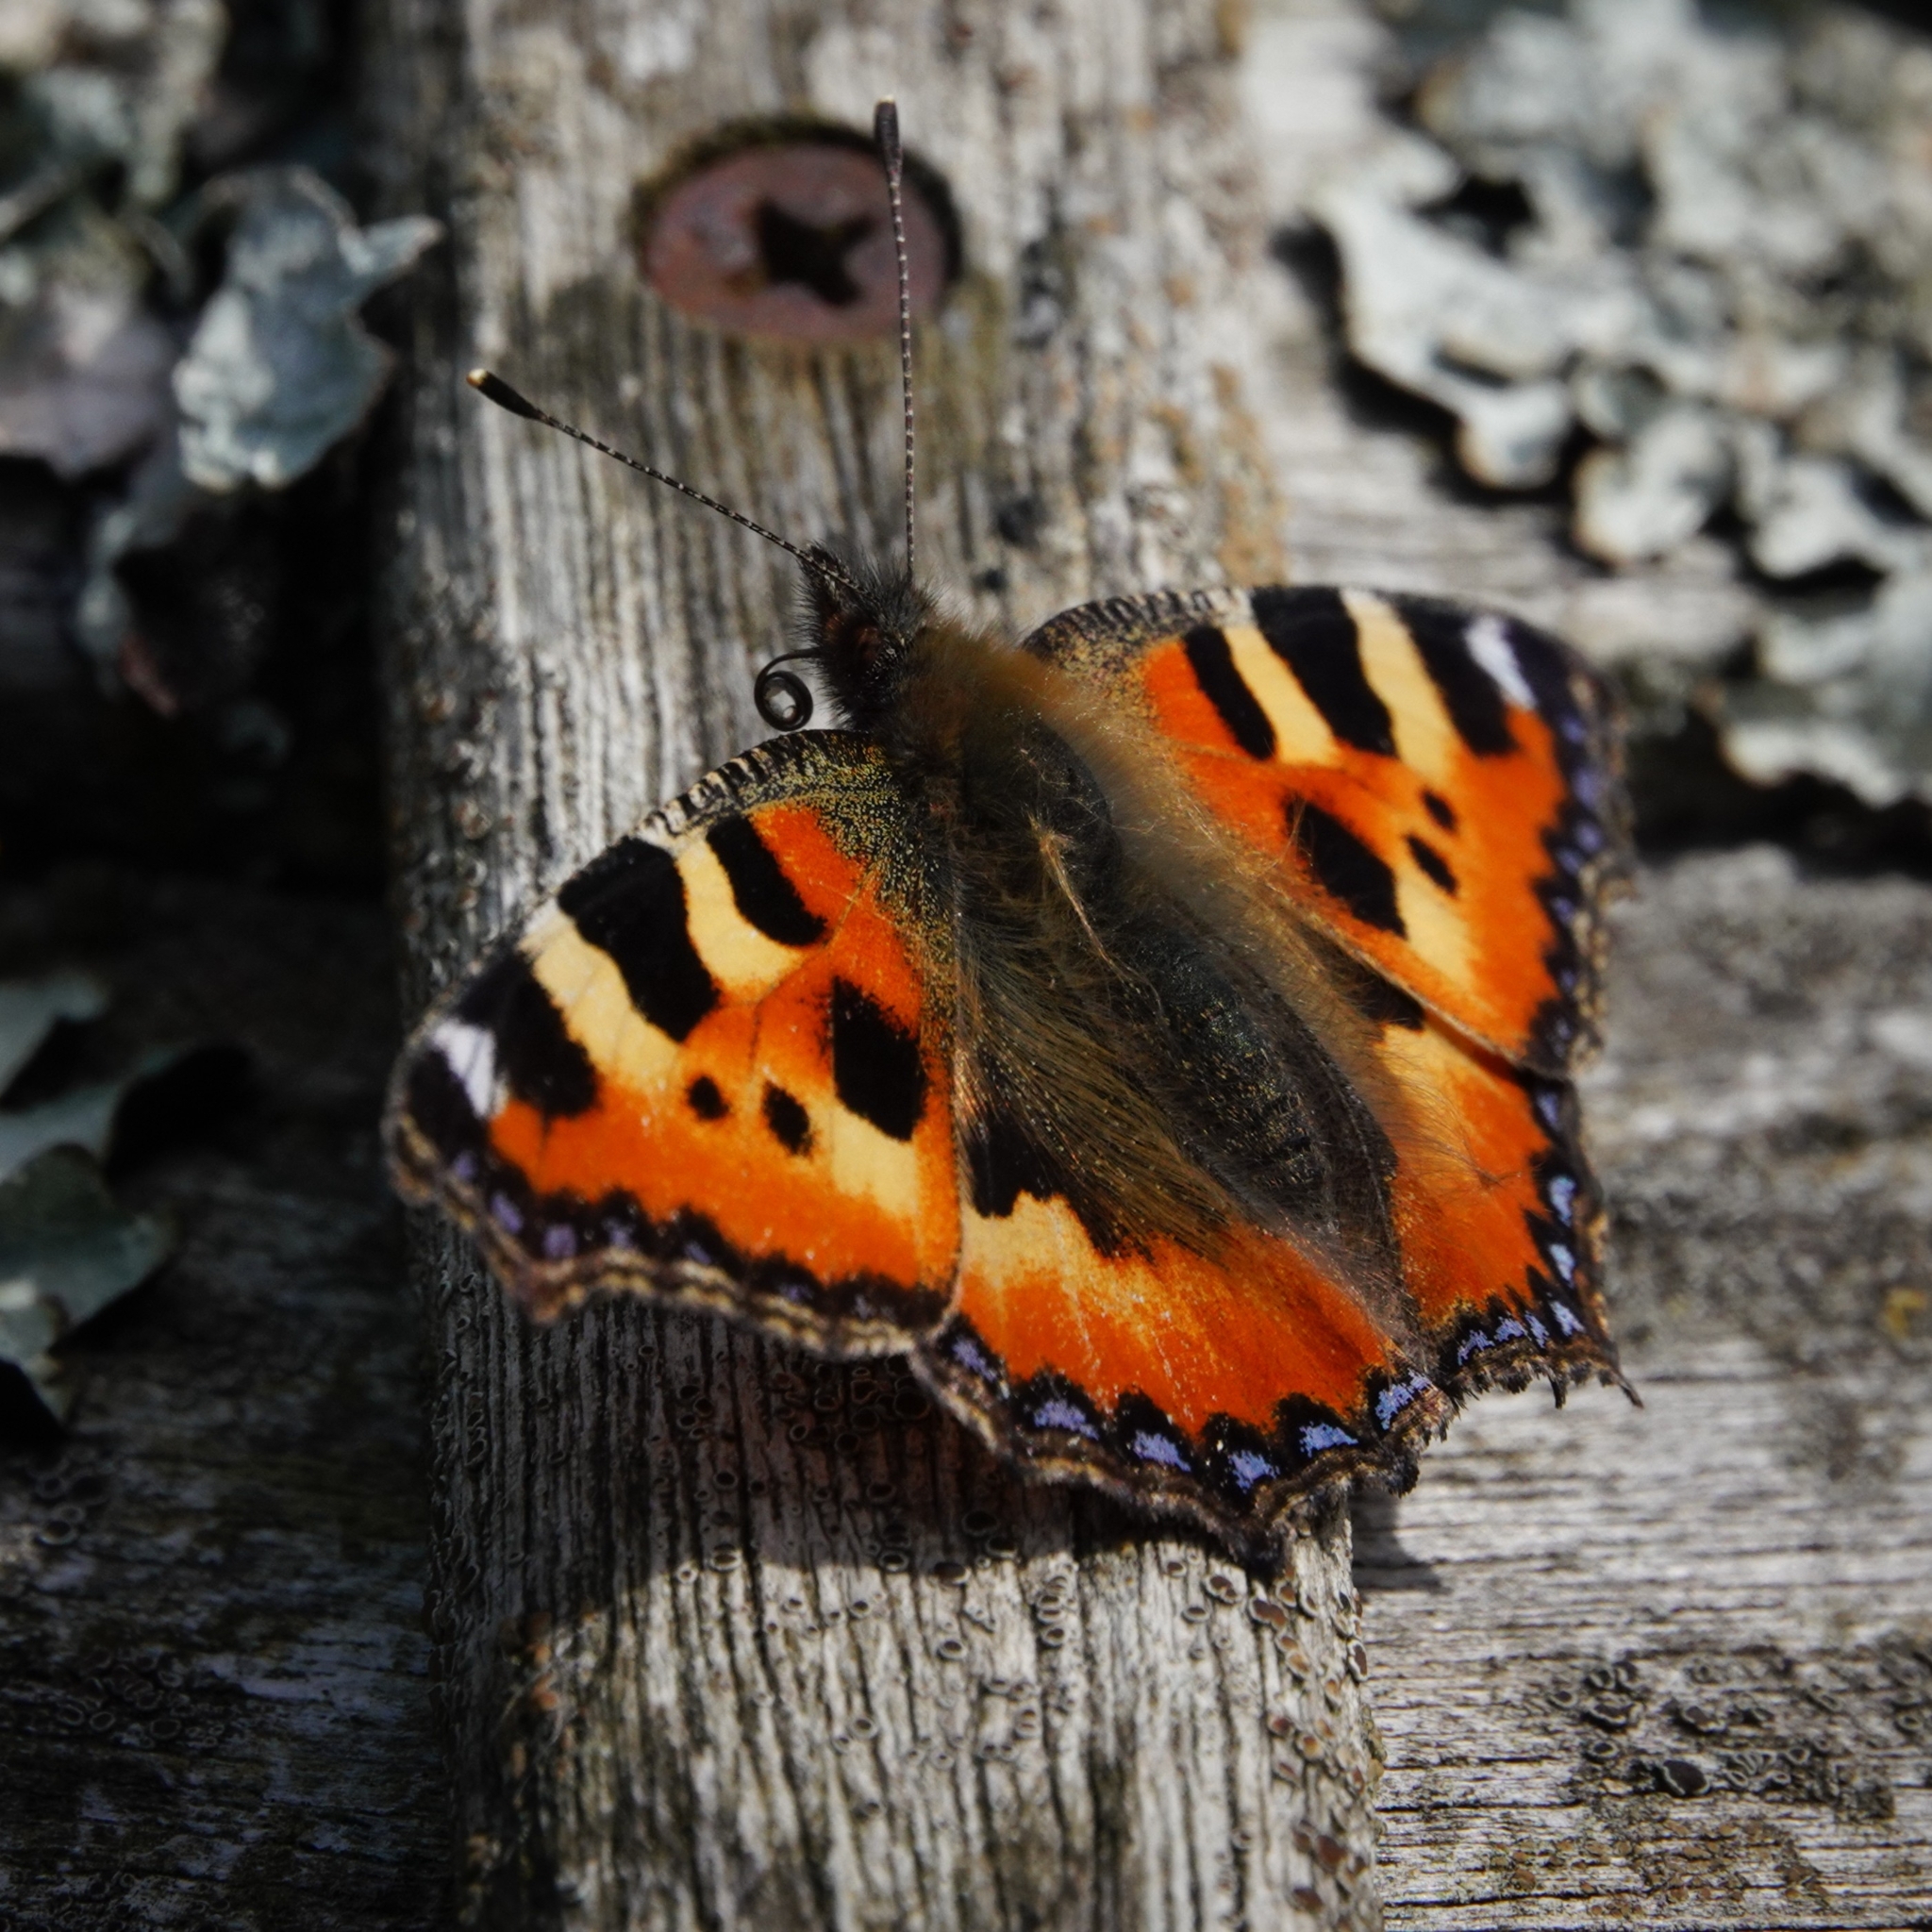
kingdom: Animalia
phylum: Arthropoda
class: Insecta
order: Lepidoptera
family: Nymphalidae
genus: Aglais
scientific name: Aglais urticae
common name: Small tortoiseshell
